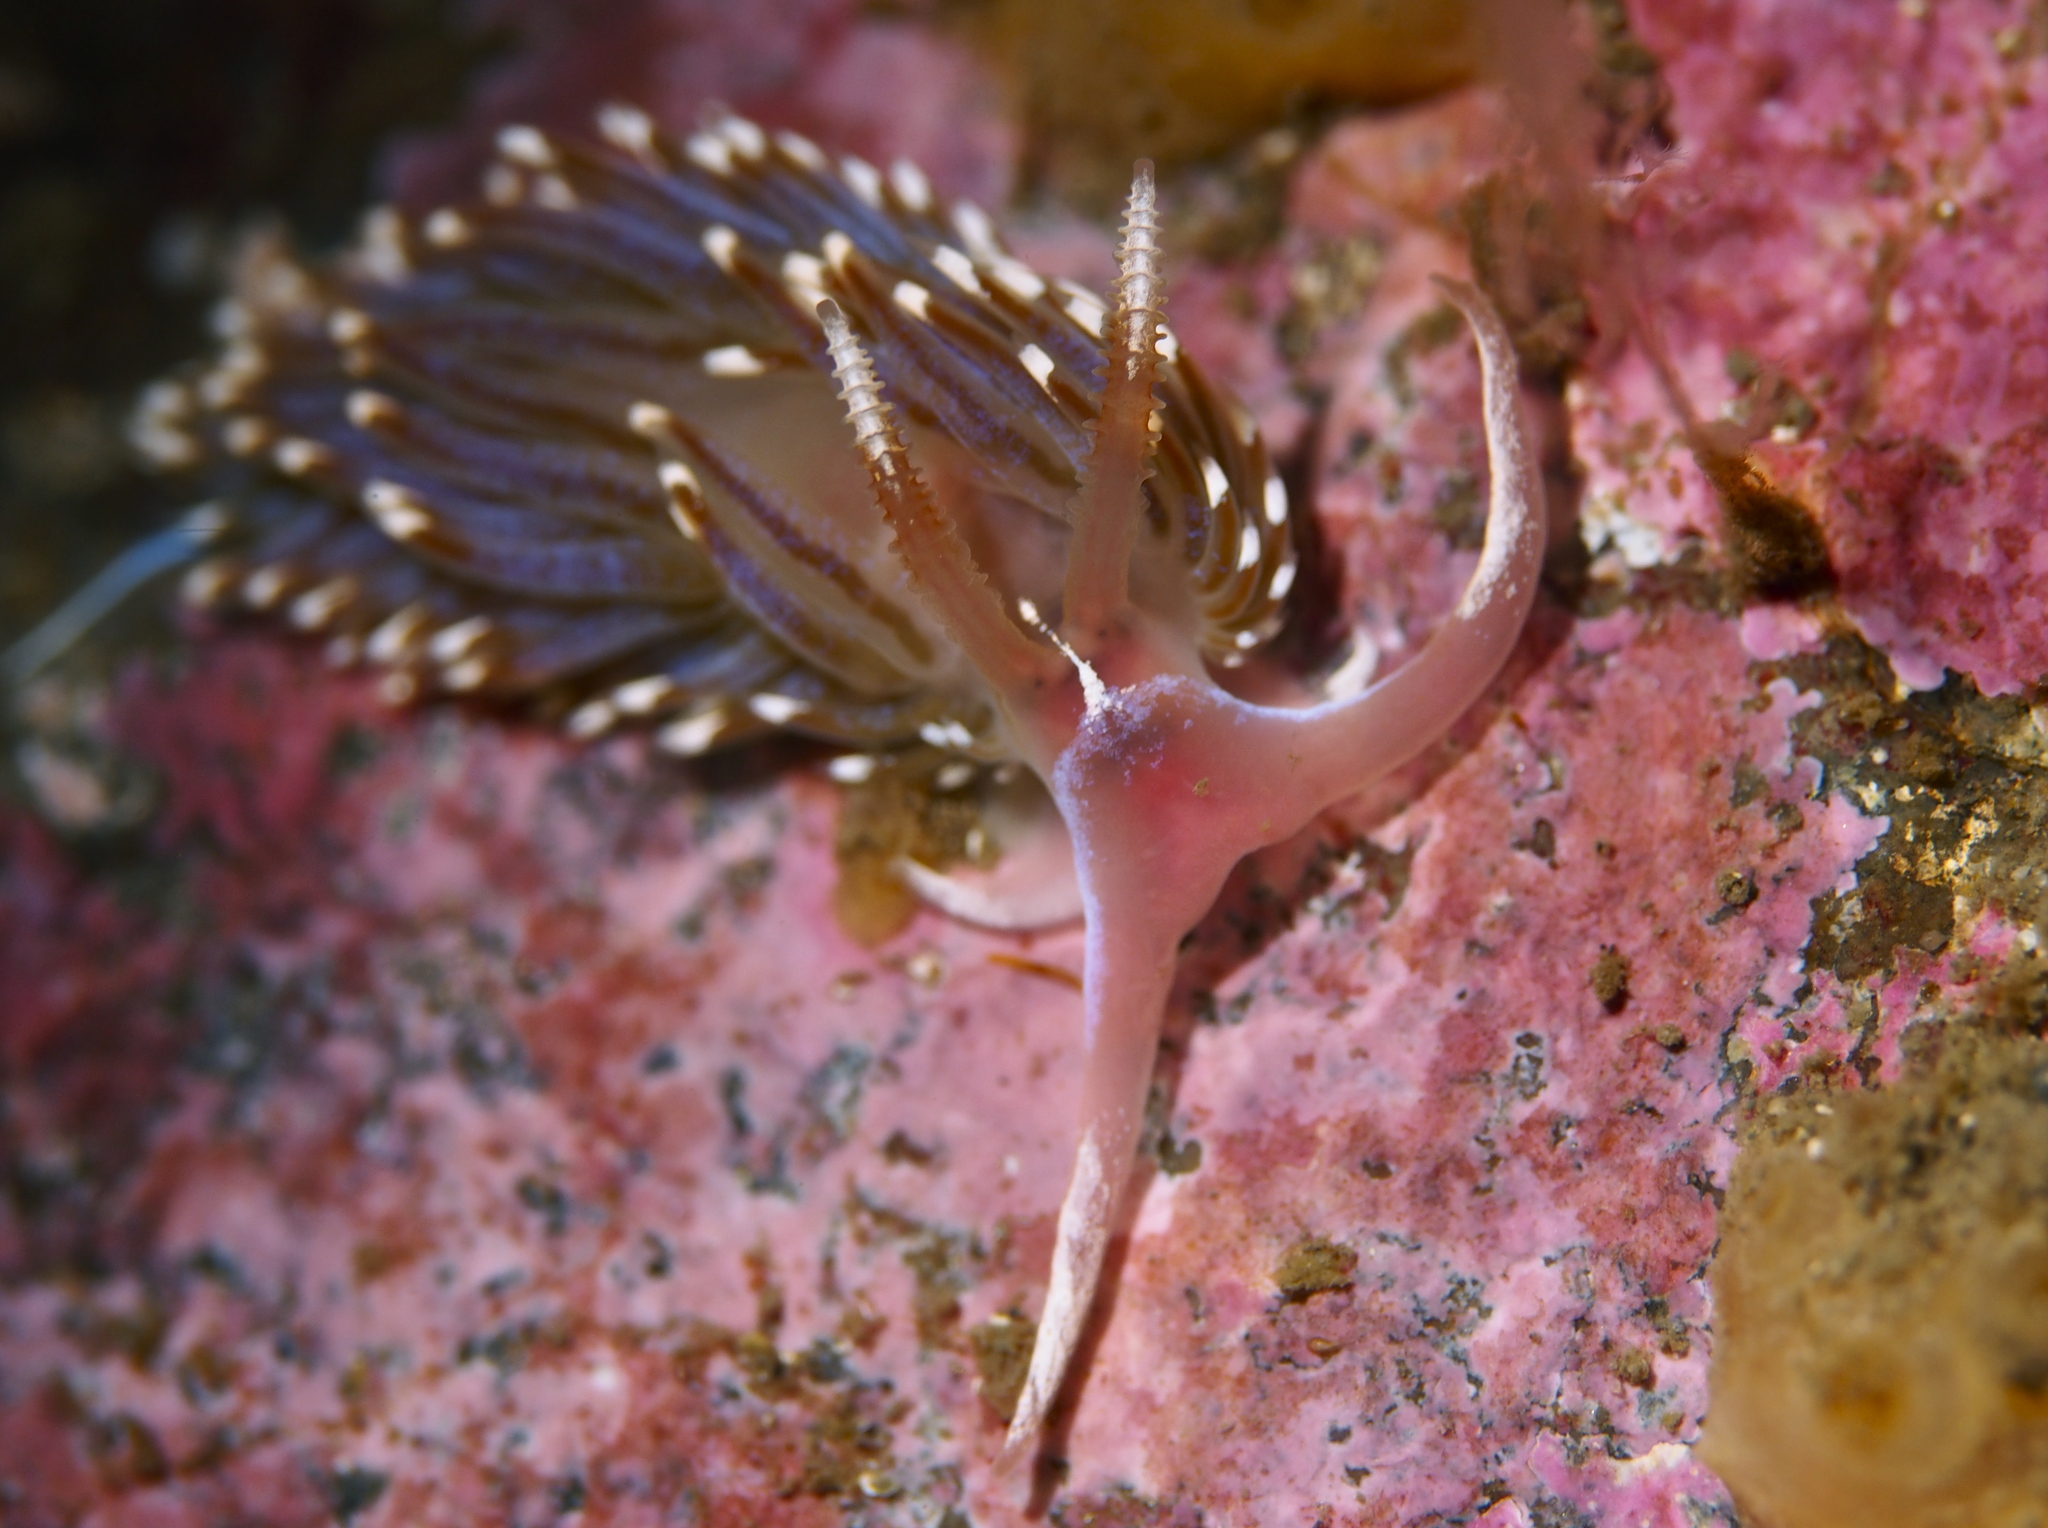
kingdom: Animalia
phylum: Mollusca
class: Gastropoda
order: Nudibranchia
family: Facelinidae
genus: Facelina
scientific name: Facelina auriculata
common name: Slender facelina
